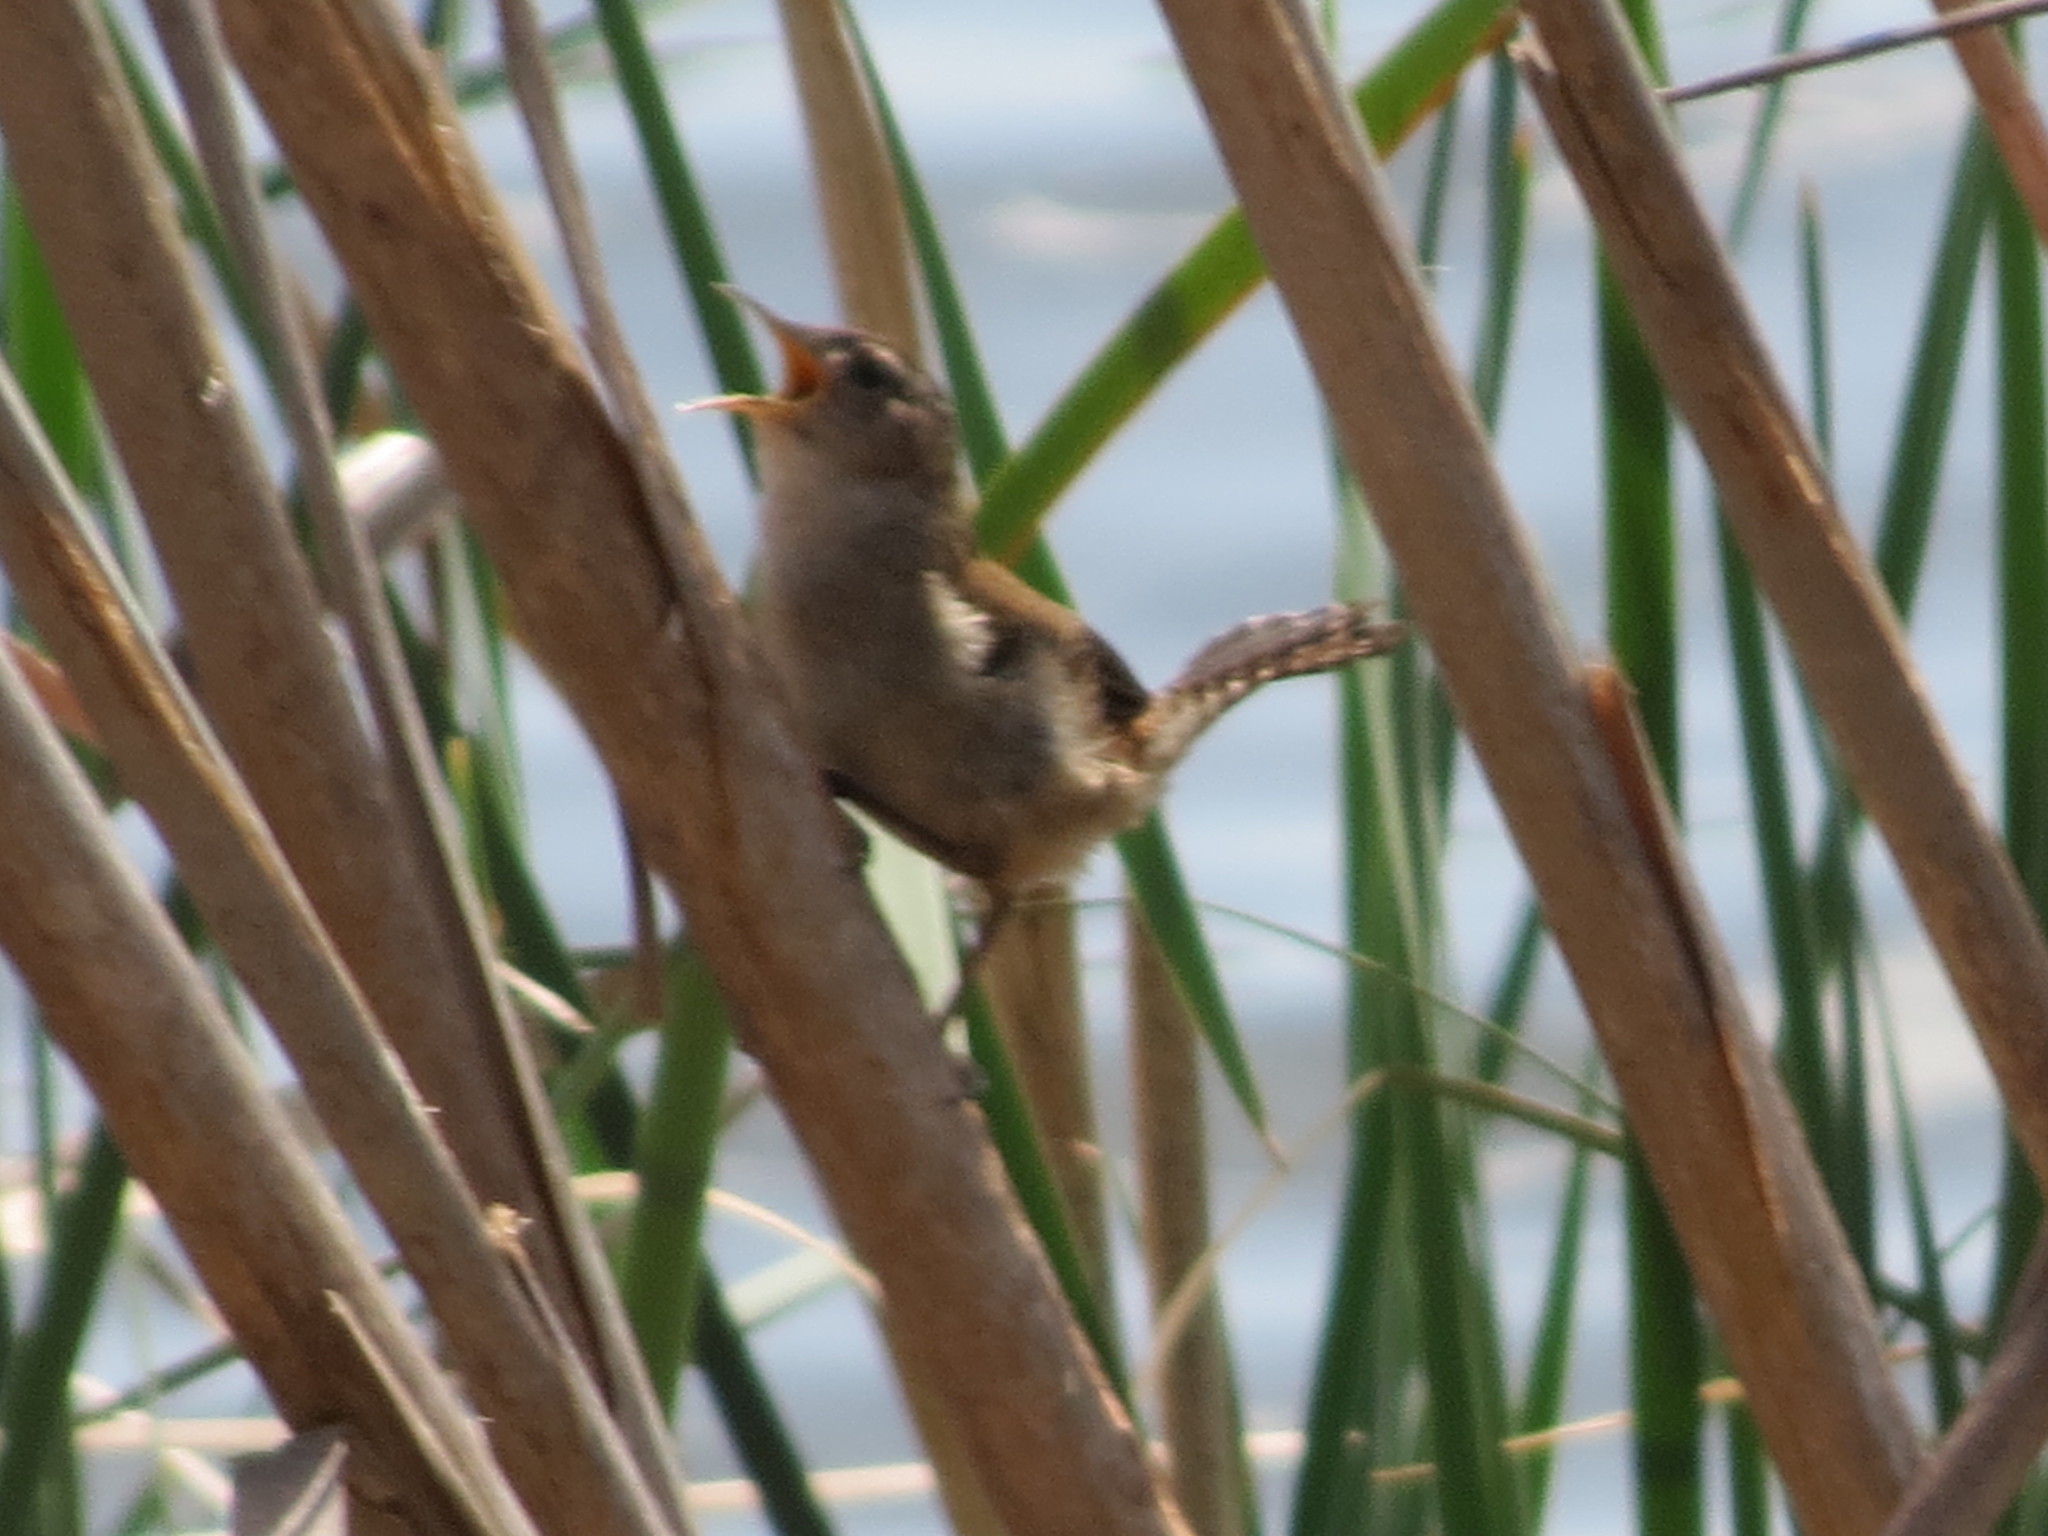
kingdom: Animalia
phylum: Chordata
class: Aves
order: Passeriformes
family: Troglodytidae
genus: Cistothorus
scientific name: Cistothorus palustris
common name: Marsh wren
